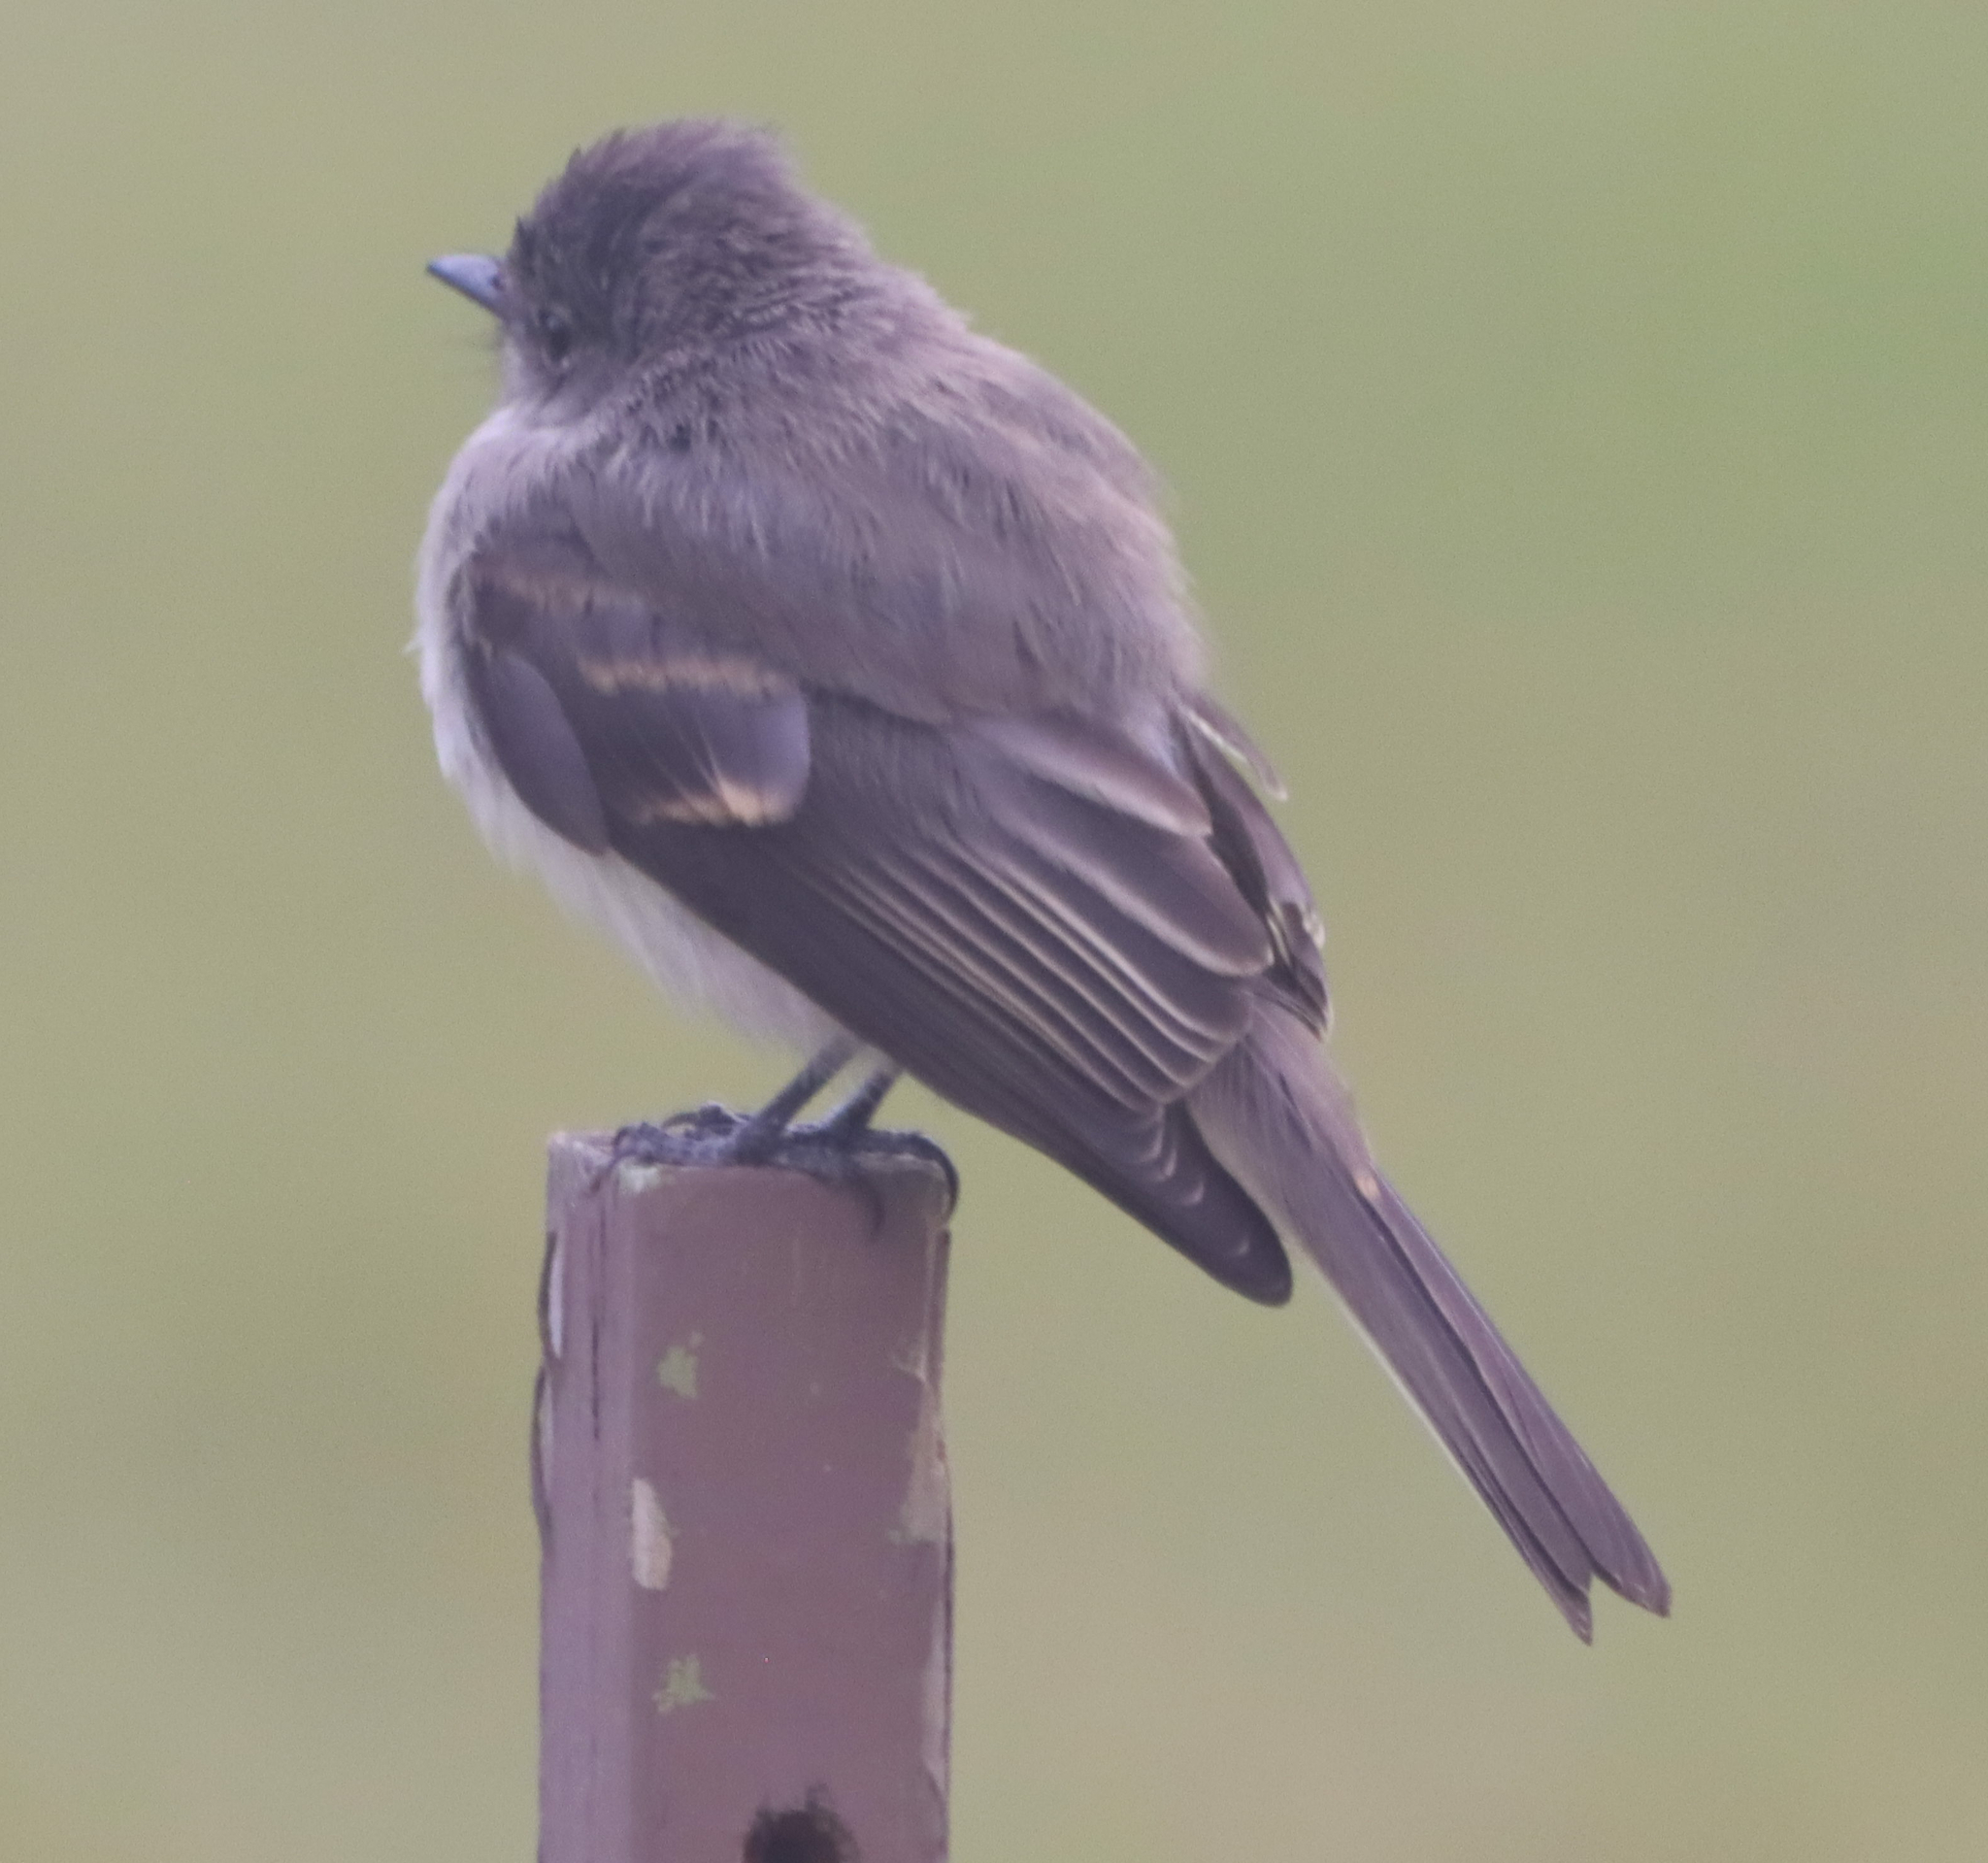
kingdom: Animalia
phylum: Chordata
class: Aves
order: Passeriformes
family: Tyrannidae
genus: Sayornis
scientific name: Sayornis phoebe
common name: Eastern phoebe
